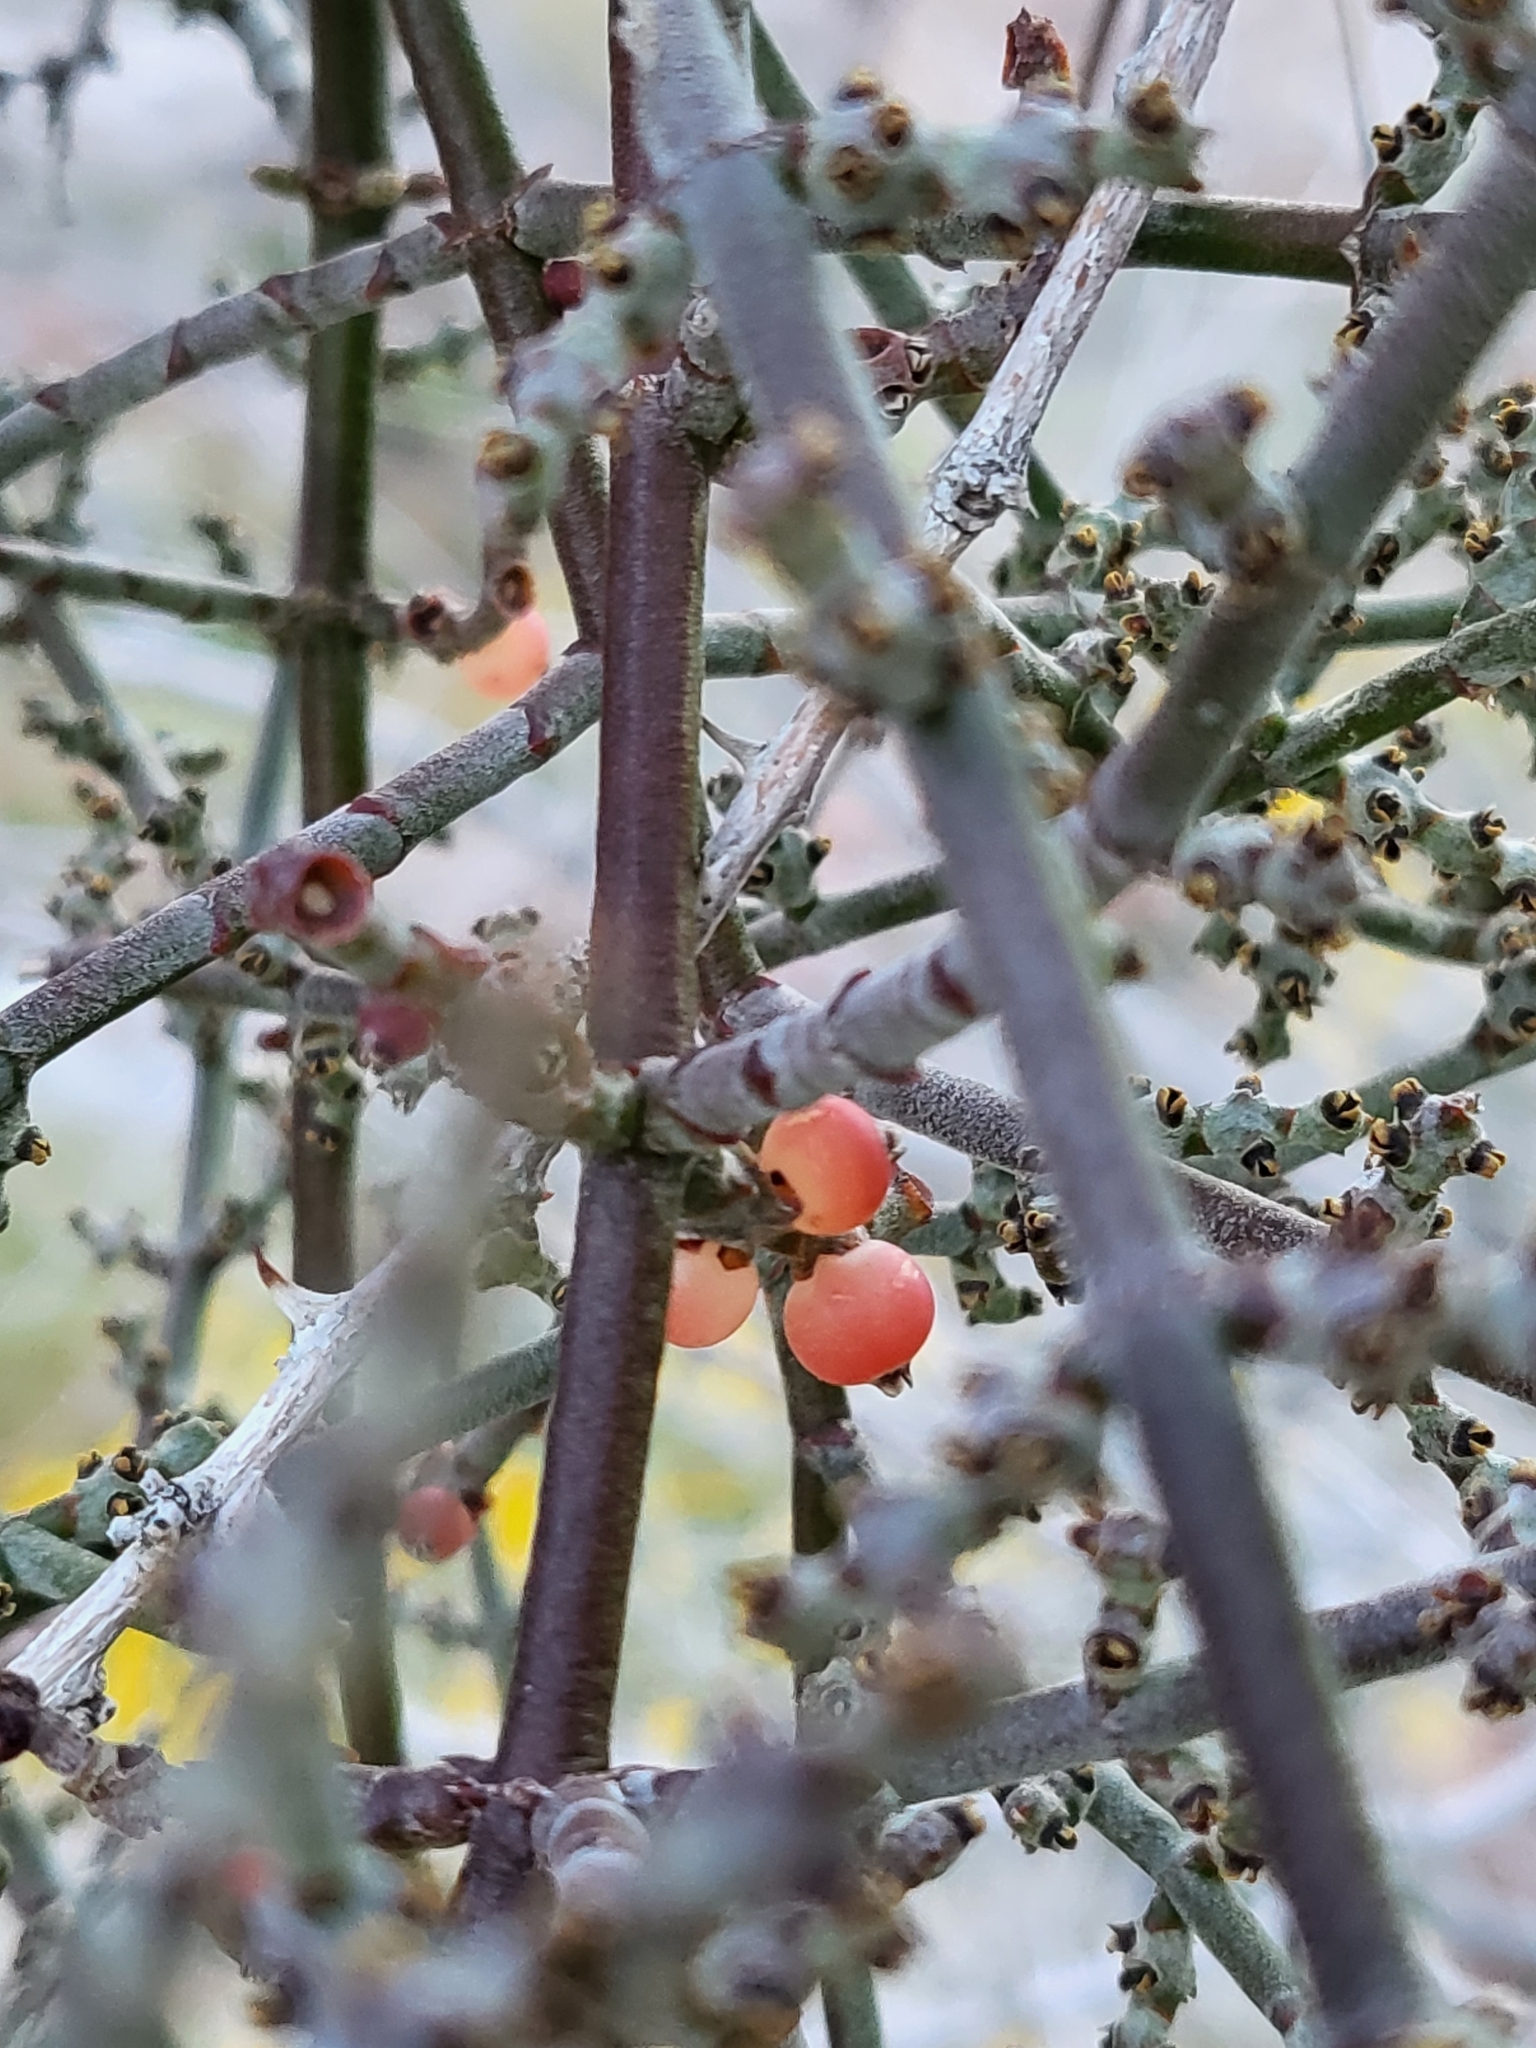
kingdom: Plantae
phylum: Tracheophyta
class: Magnoliopsida
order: Santalales
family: Viscaceae
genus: Phoradendron
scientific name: Phoradendron californicum
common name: Acacia mistletoe
